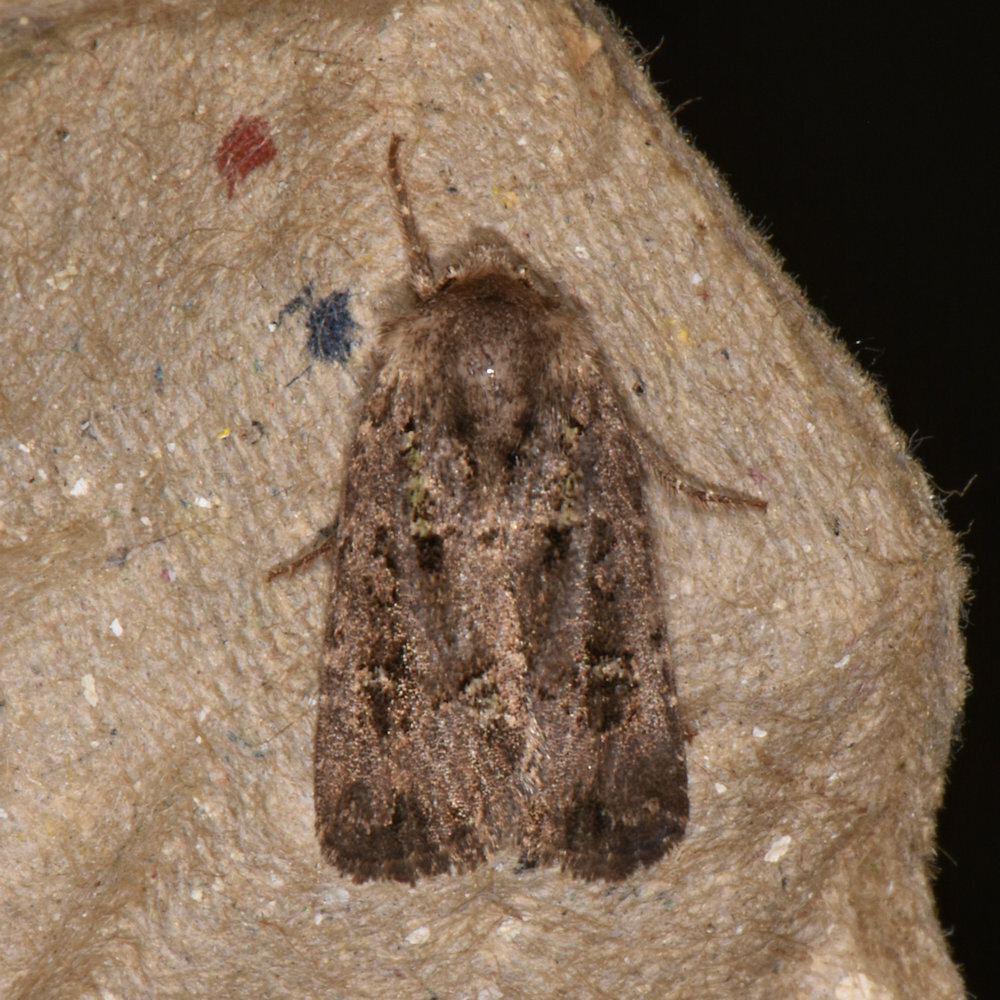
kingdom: Animalia
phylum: Arthropoda
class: Insecta
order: Lepidoptera
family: Noctuidae
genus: Lacinipolia
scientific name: Lacinipolia renigera
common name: Kidney-spotted minor
